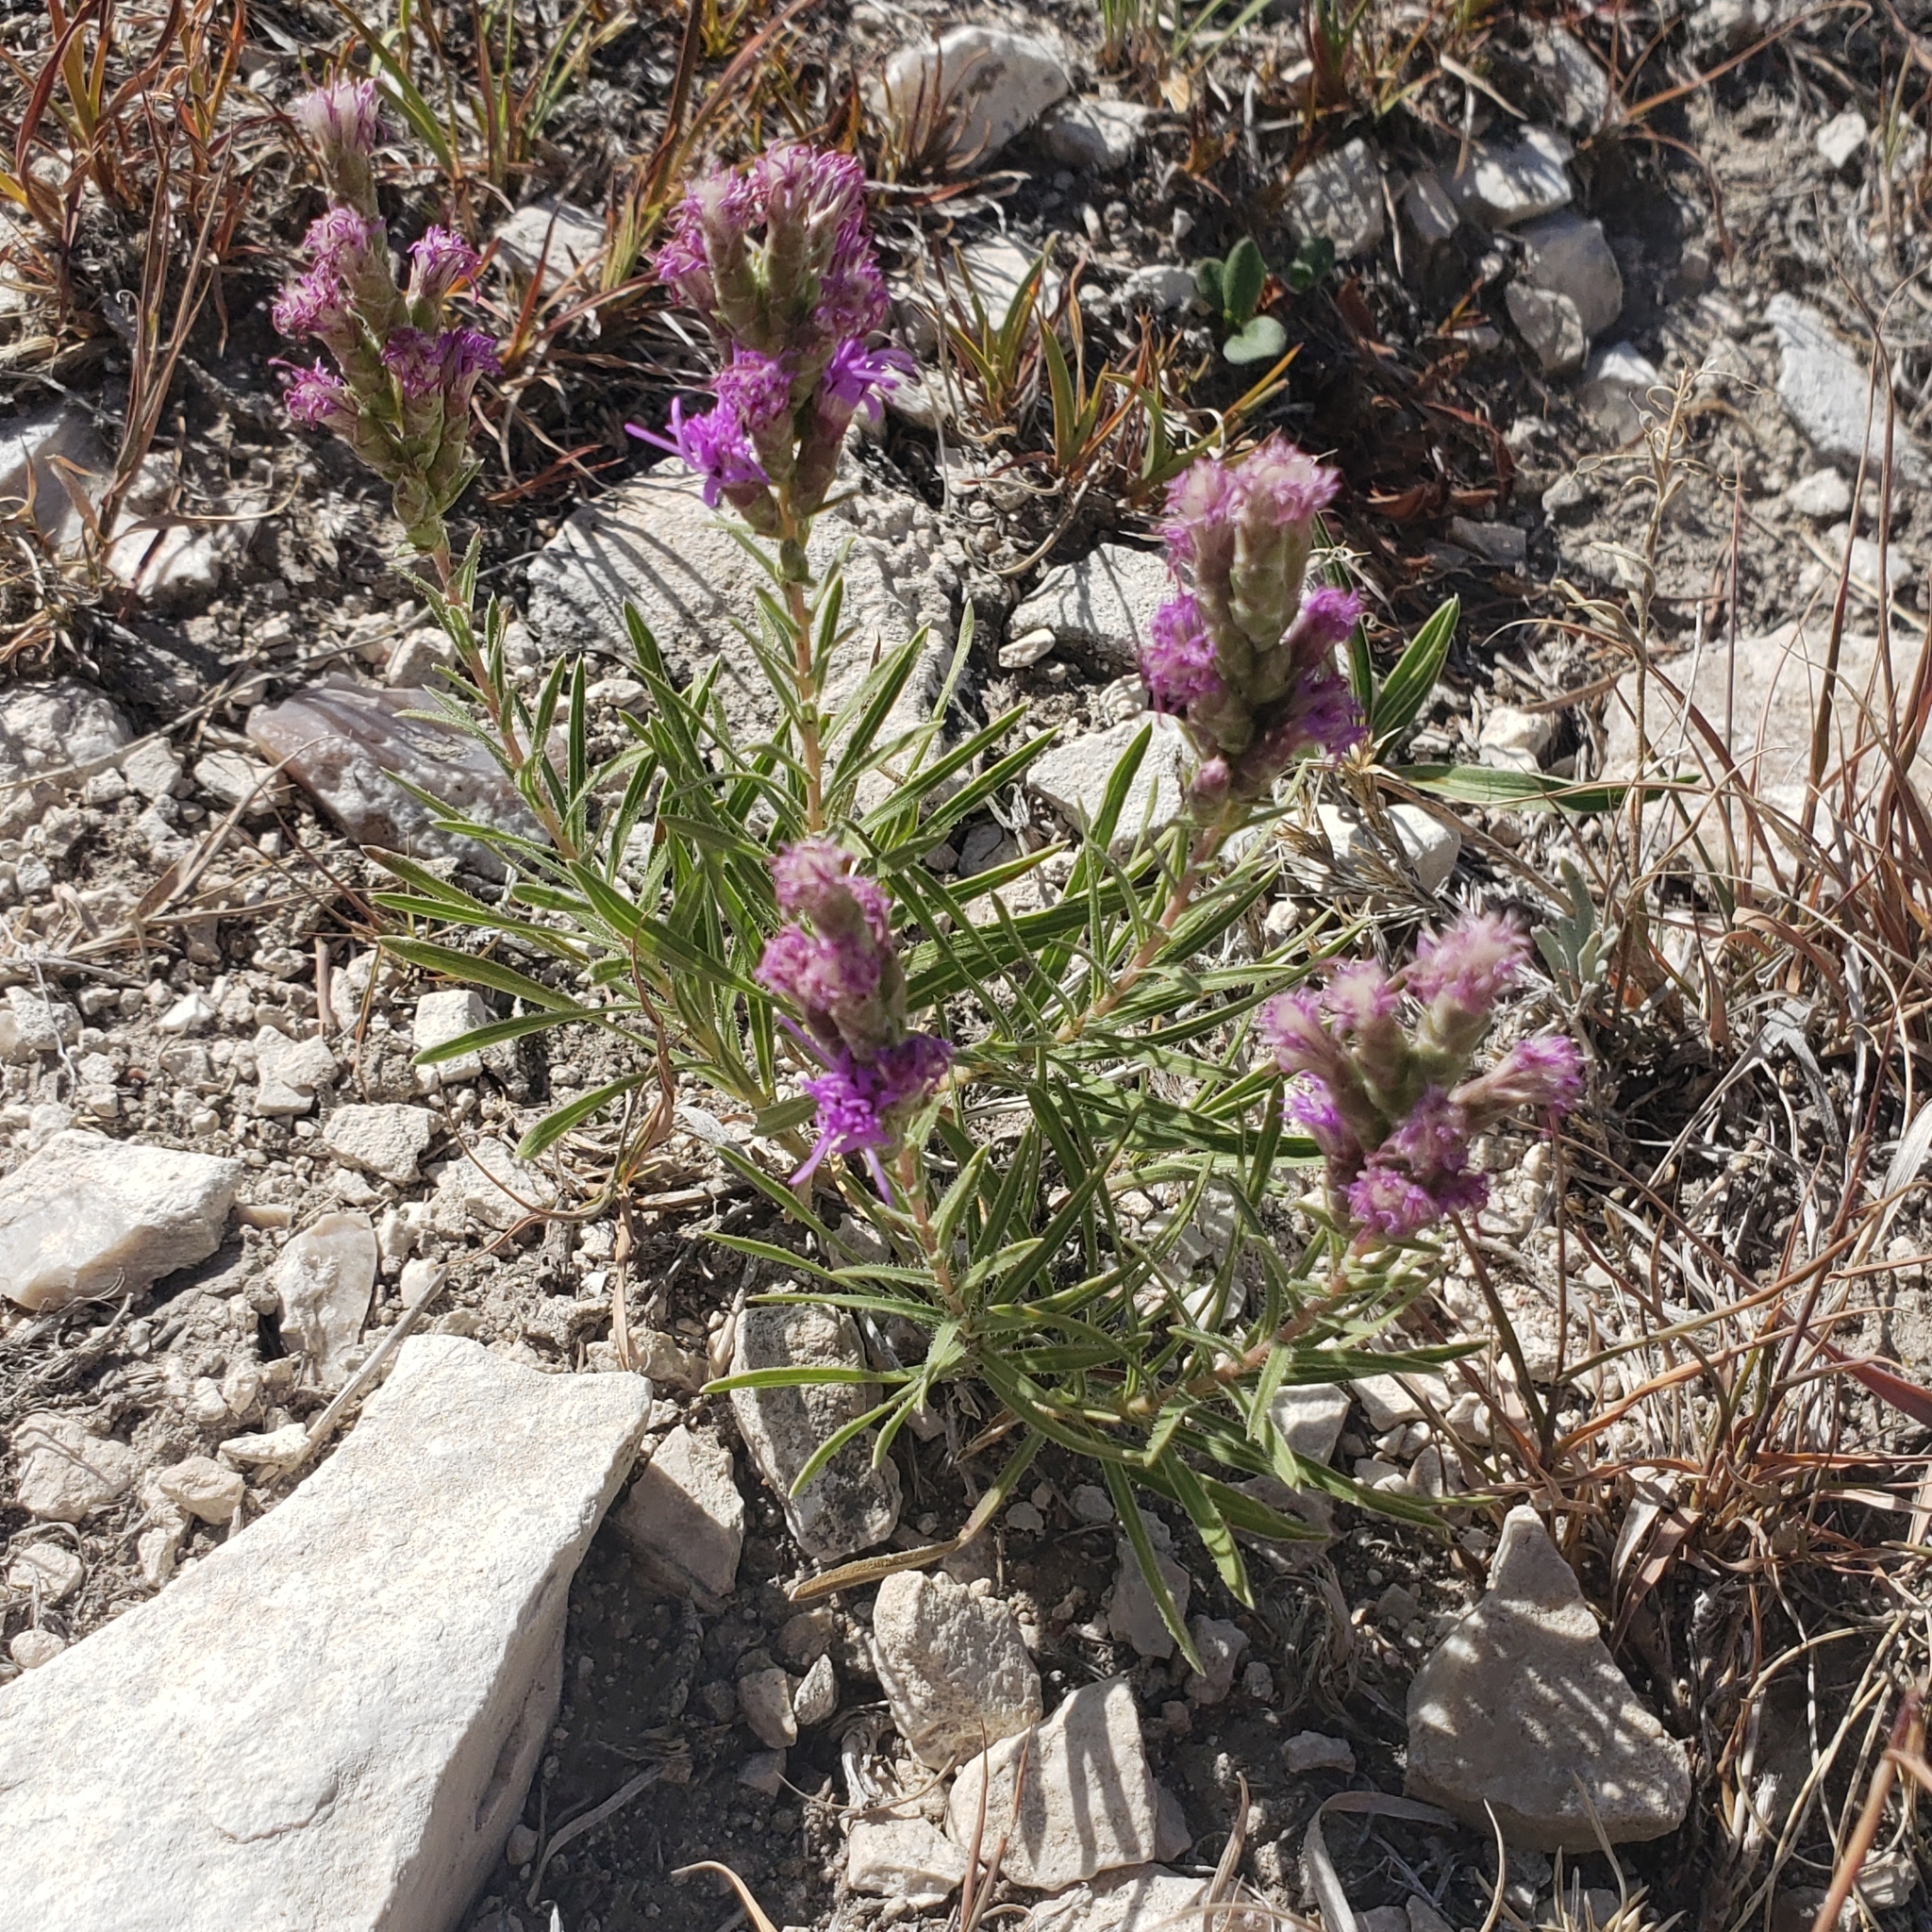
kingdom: Plantae
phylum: Tracheophyta
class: Magnoliopsida
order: Asterales
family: Asteraceae
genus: Liatris
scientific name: Liatris punctata
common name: Dotted gayfeather
